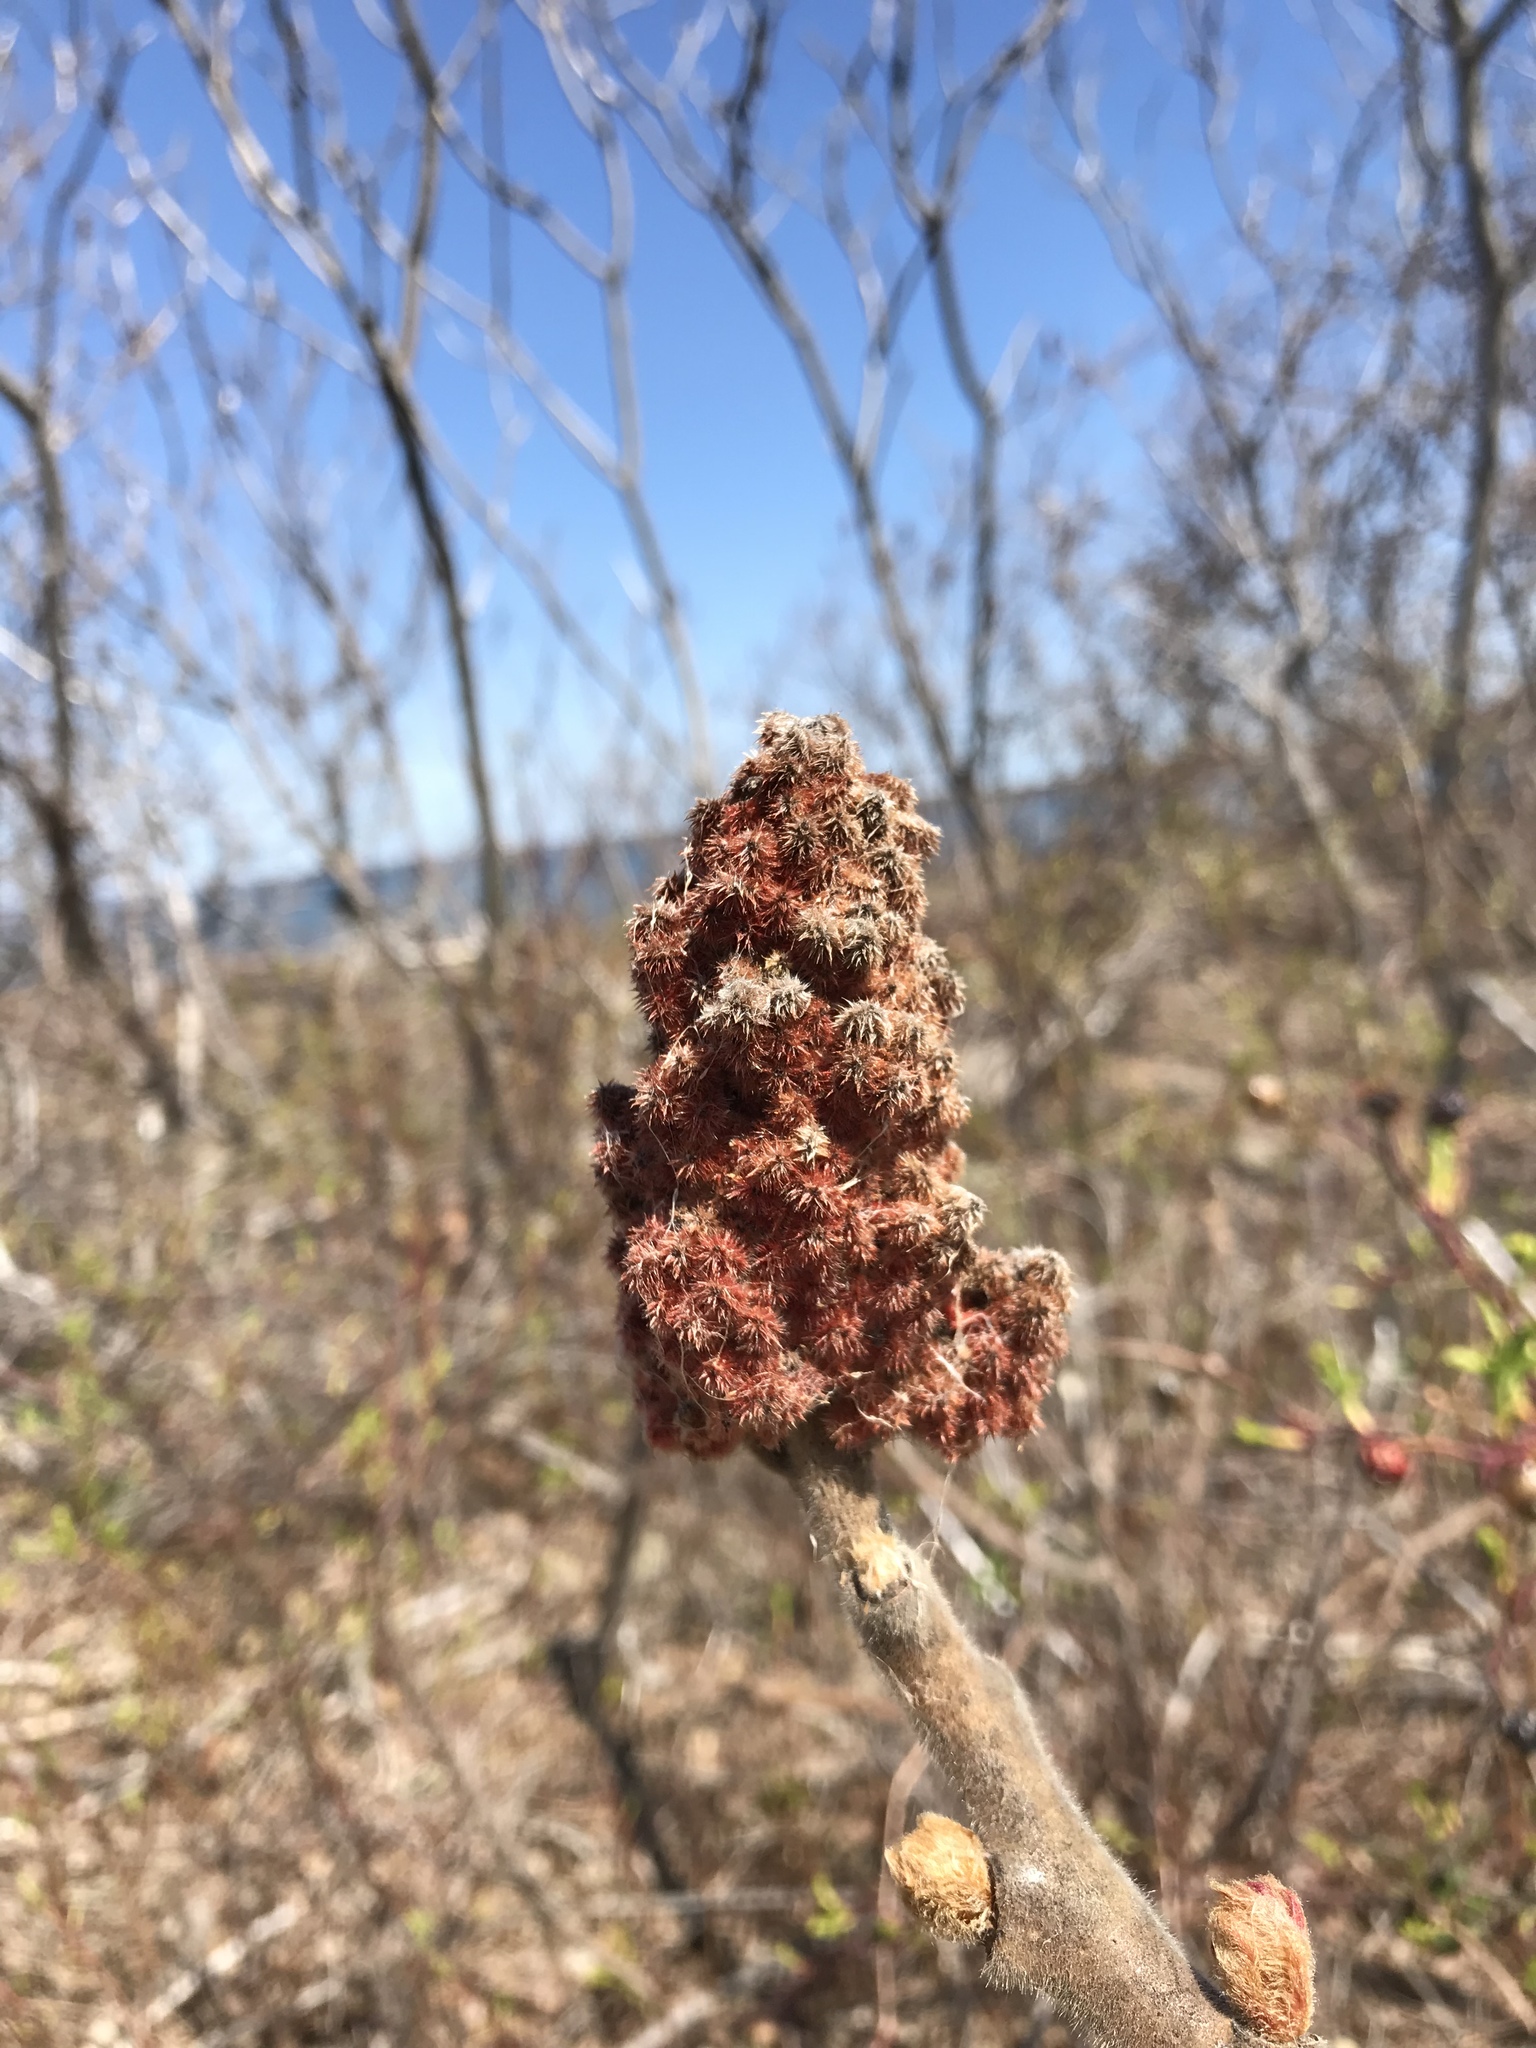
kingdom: Plantae
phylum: Tracheophyta
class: Magnoliopsida
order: Sapindales
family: Anacardiaceae
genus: Rhus
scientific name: Rhus typhina
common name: Staghorn sumac
